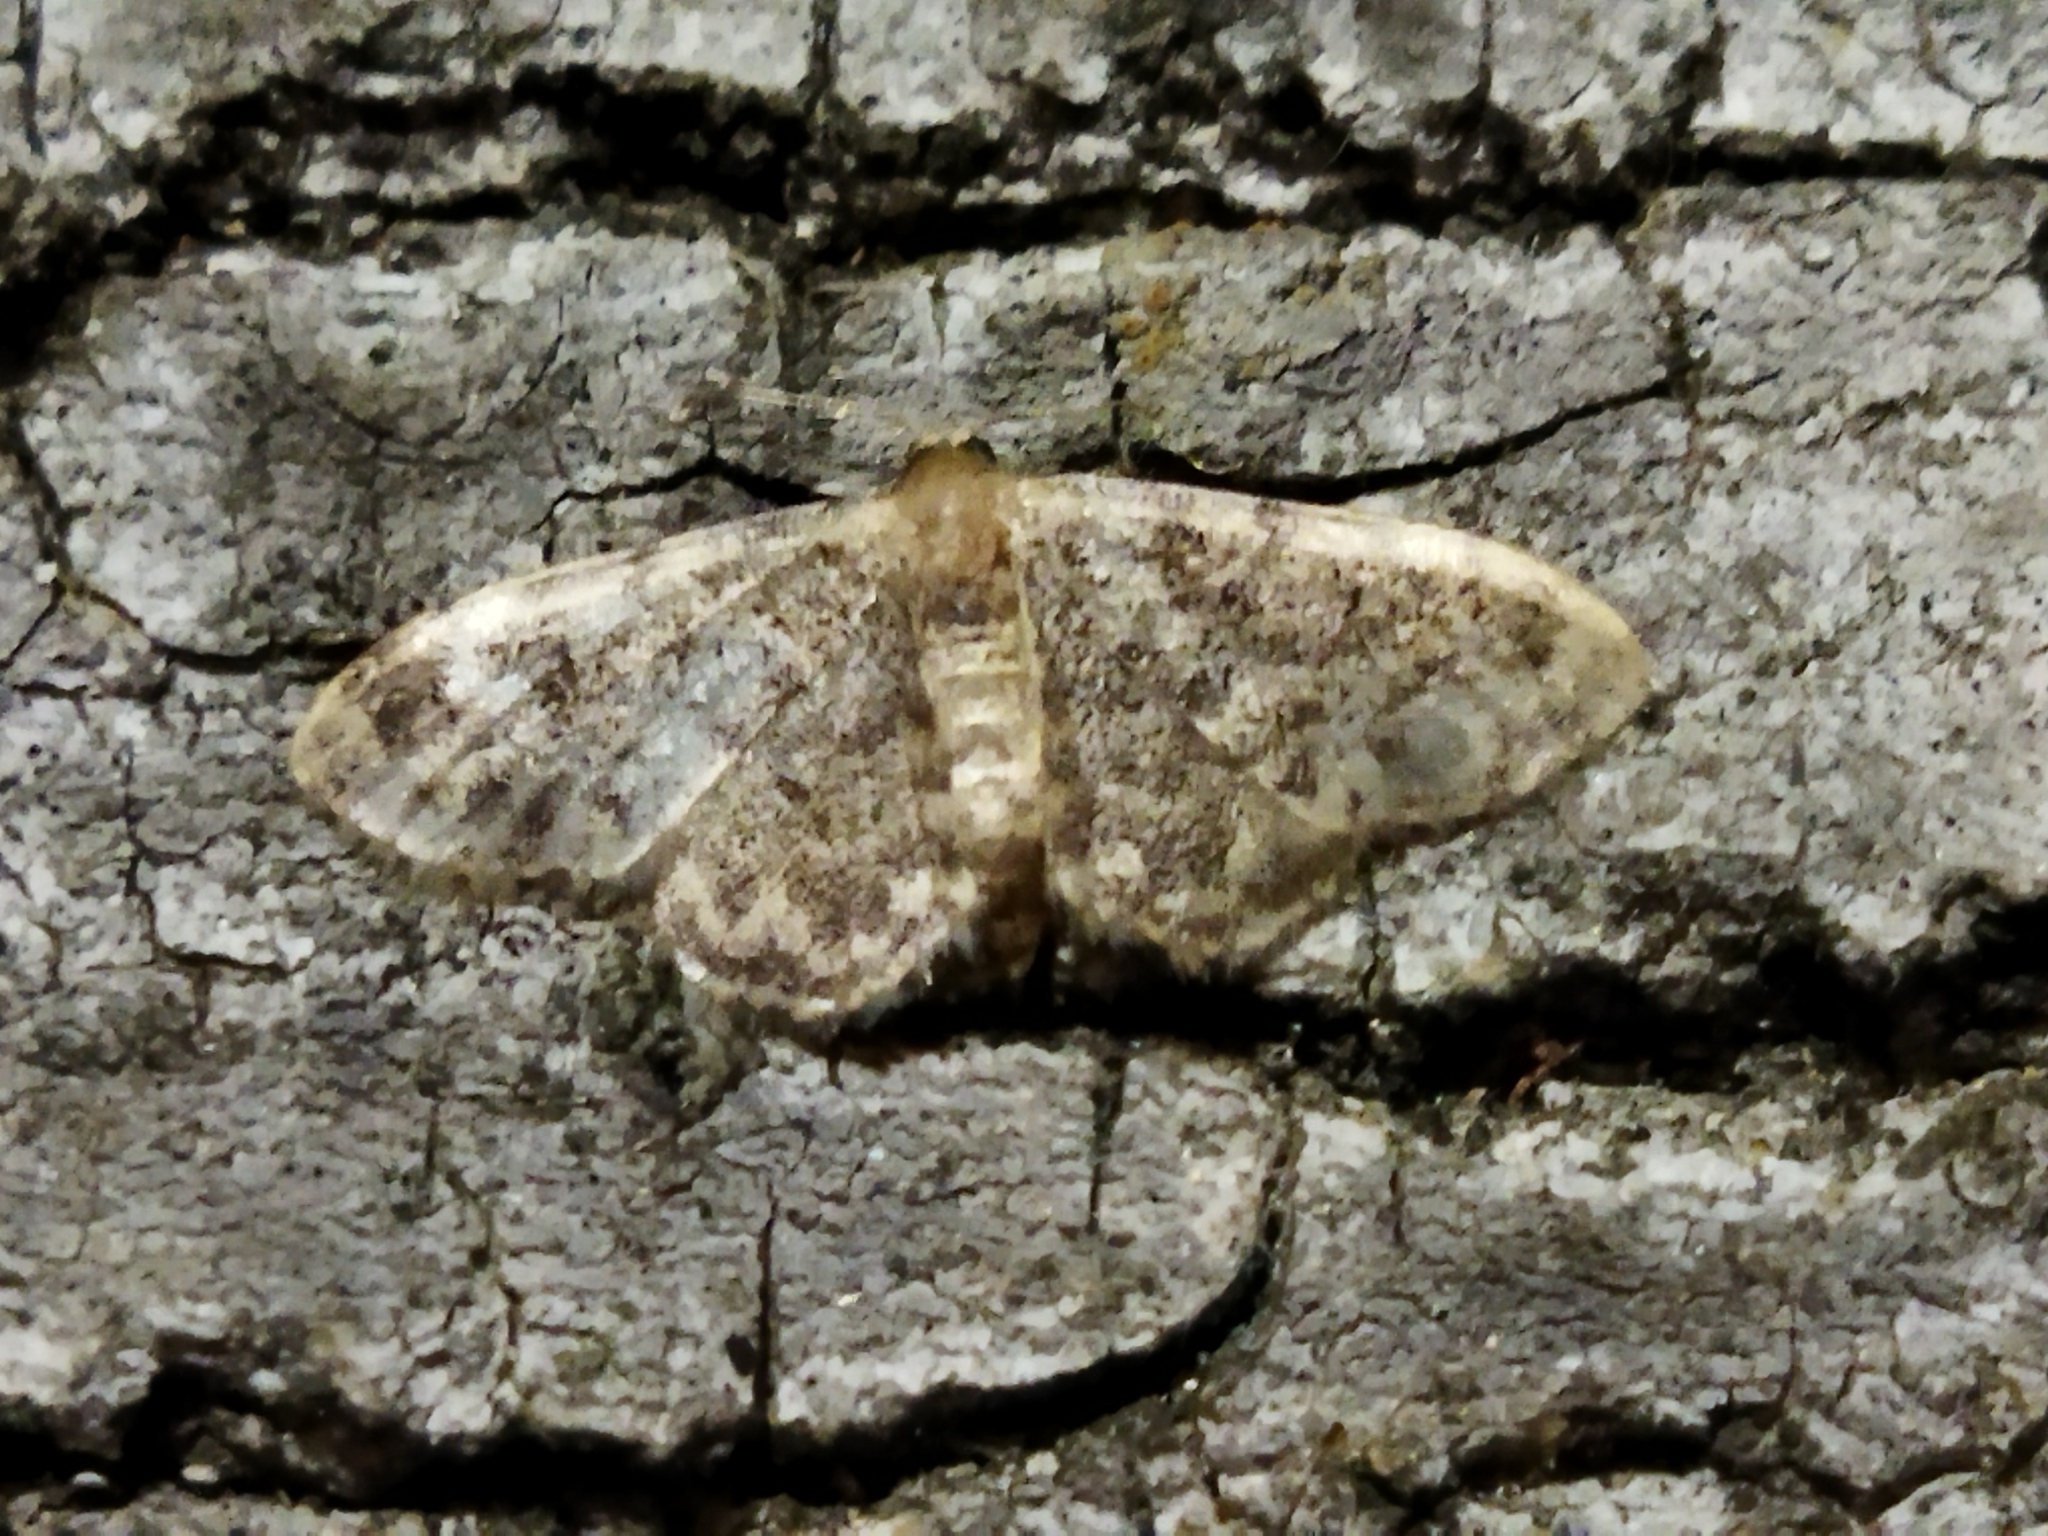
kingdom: Animalia
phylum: Arthropoda
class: Insecta
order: Lepidoptera
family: Geometridae
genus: Idaea
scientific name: Idaea inquinata
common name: Rusty wave
